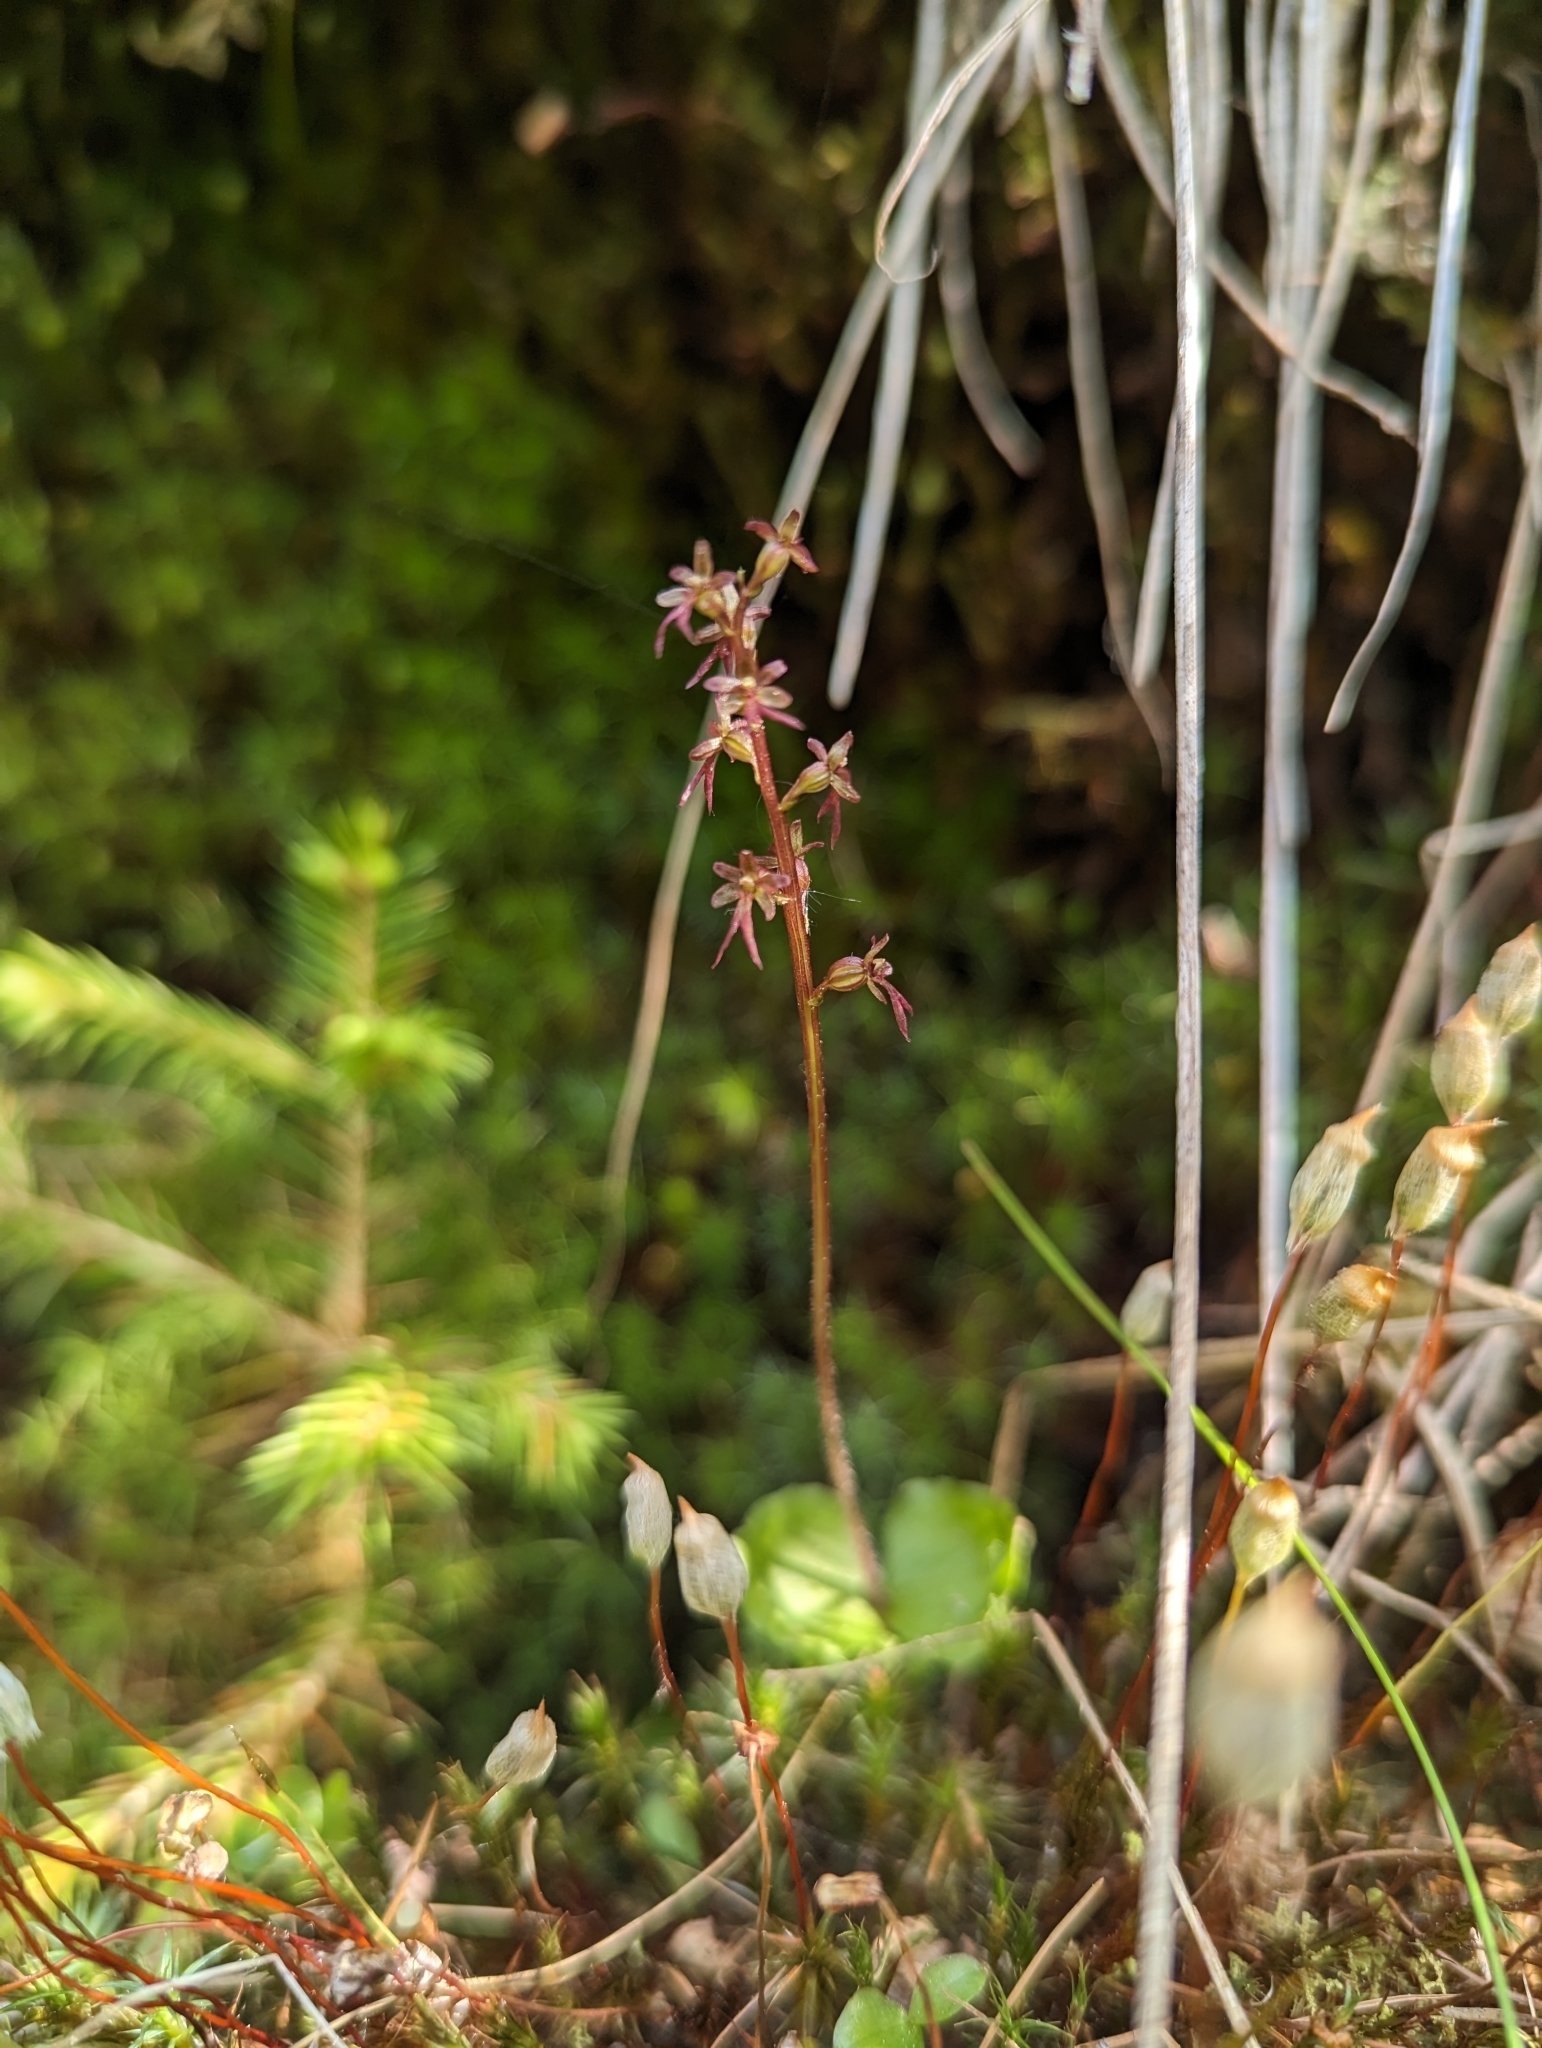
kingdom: Plantae
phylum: Tracheophyta
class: Liliopsida
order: Asparagales
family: Orchidaceae
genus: Neottia
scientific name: Neottia cordata
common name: Lesser twayblade
